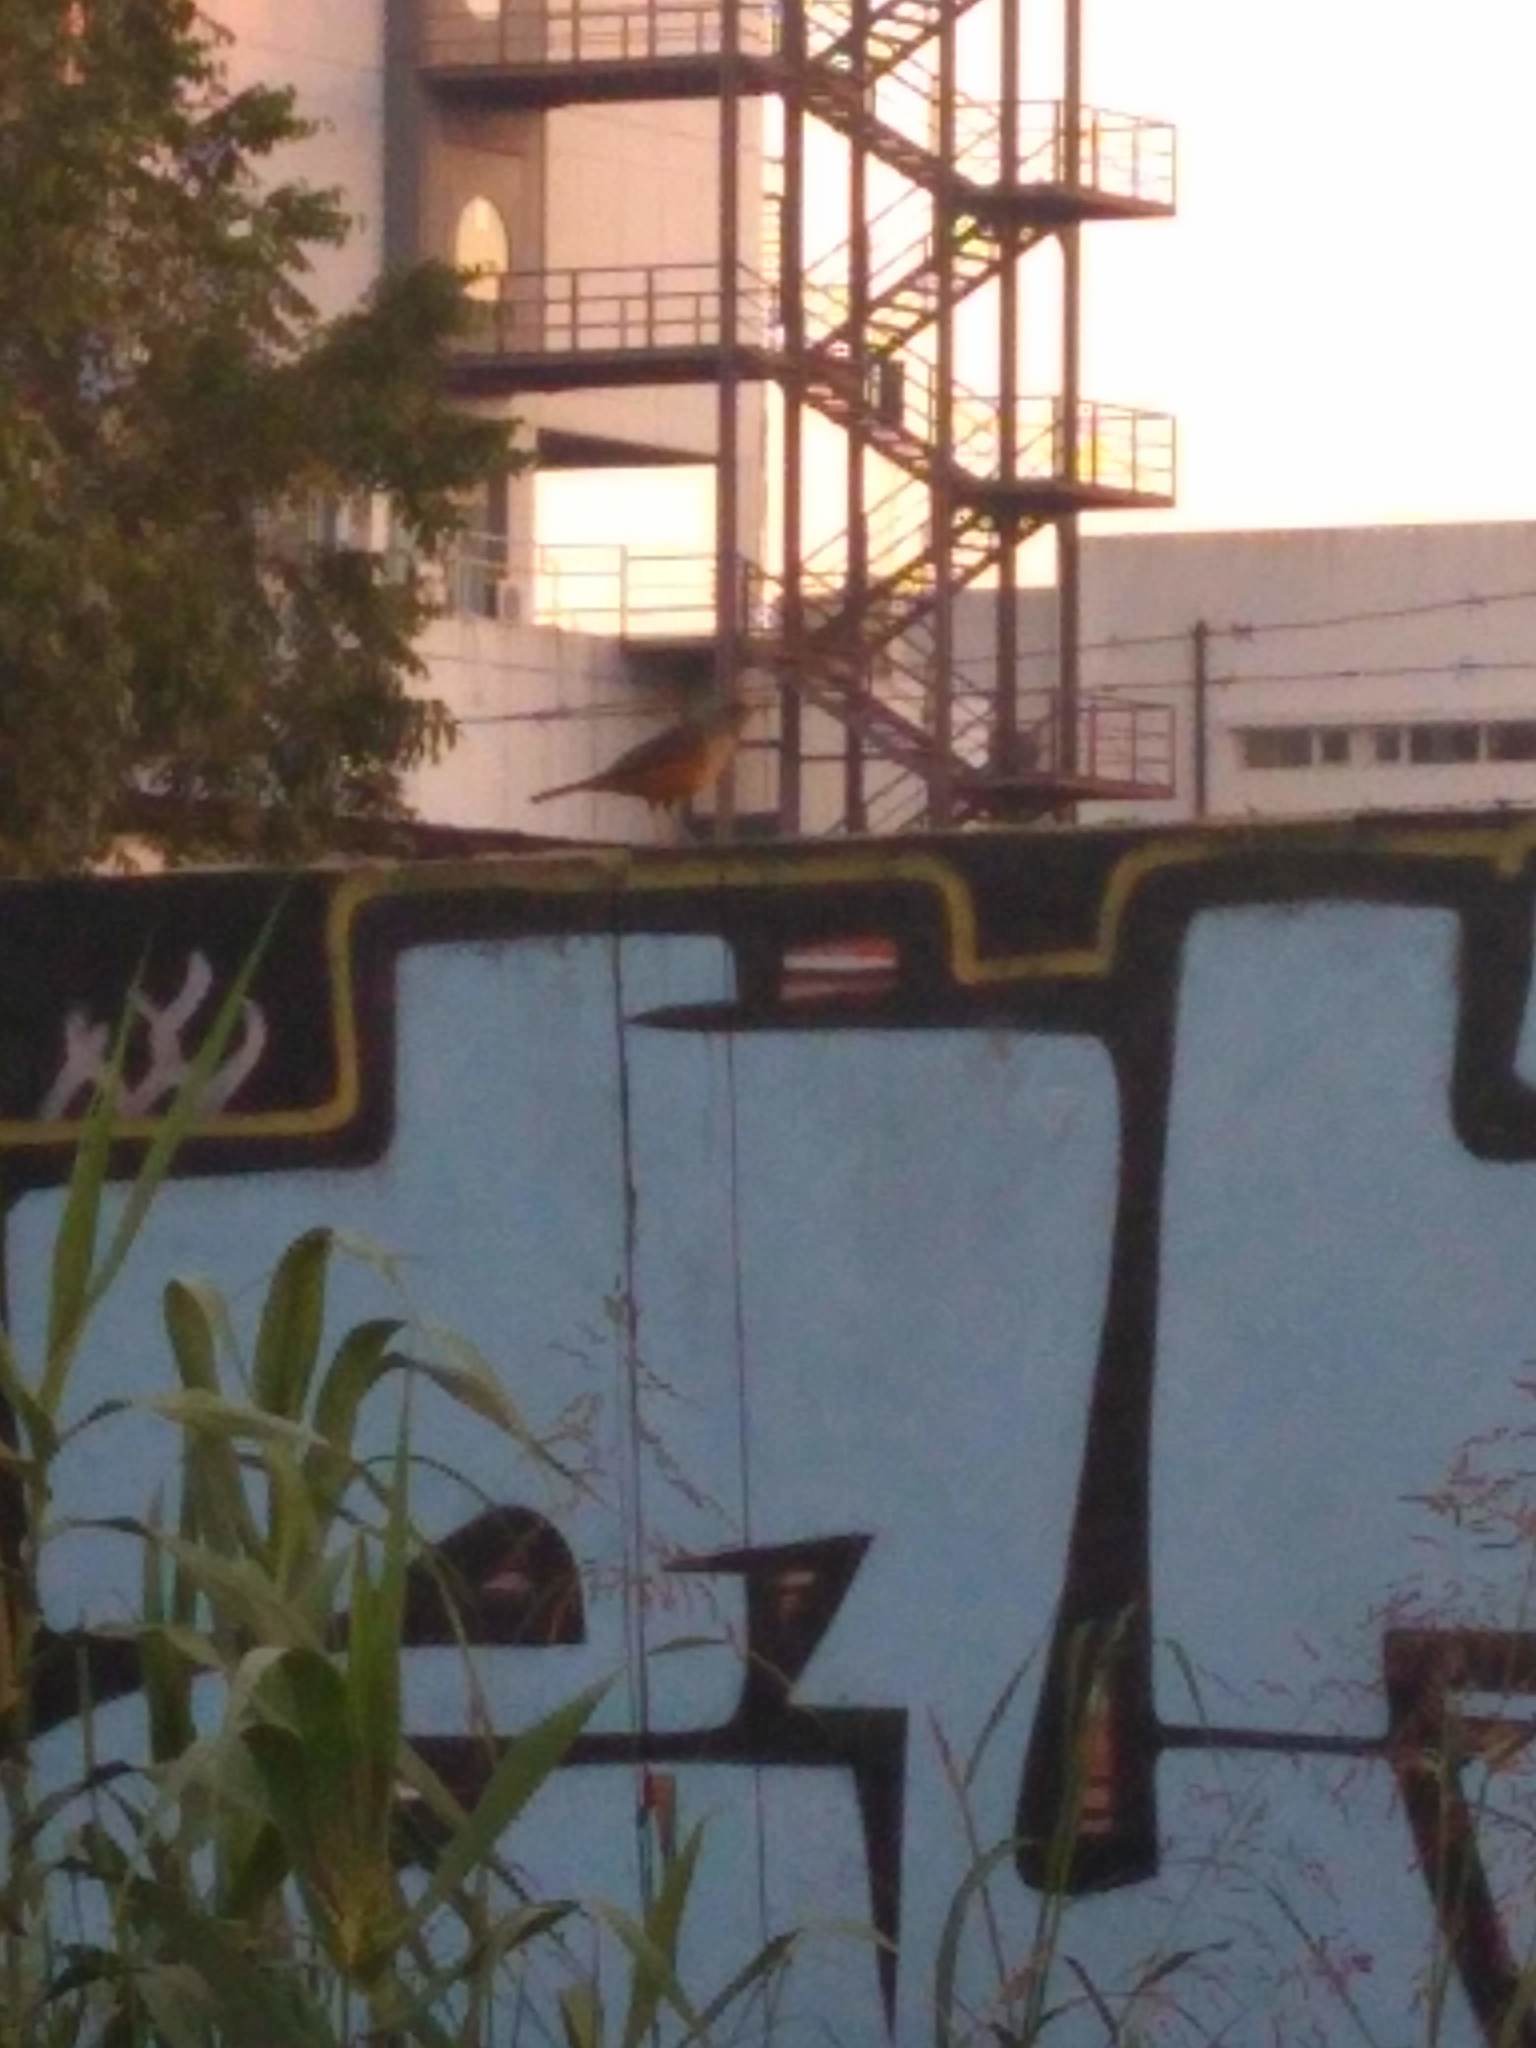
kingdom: Animalia
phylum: Chordata
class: Aves
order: Passeriformes
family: Turdidae
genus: Turdus
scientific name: Turdus rufiventris
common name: Rufous-bellied thrush
